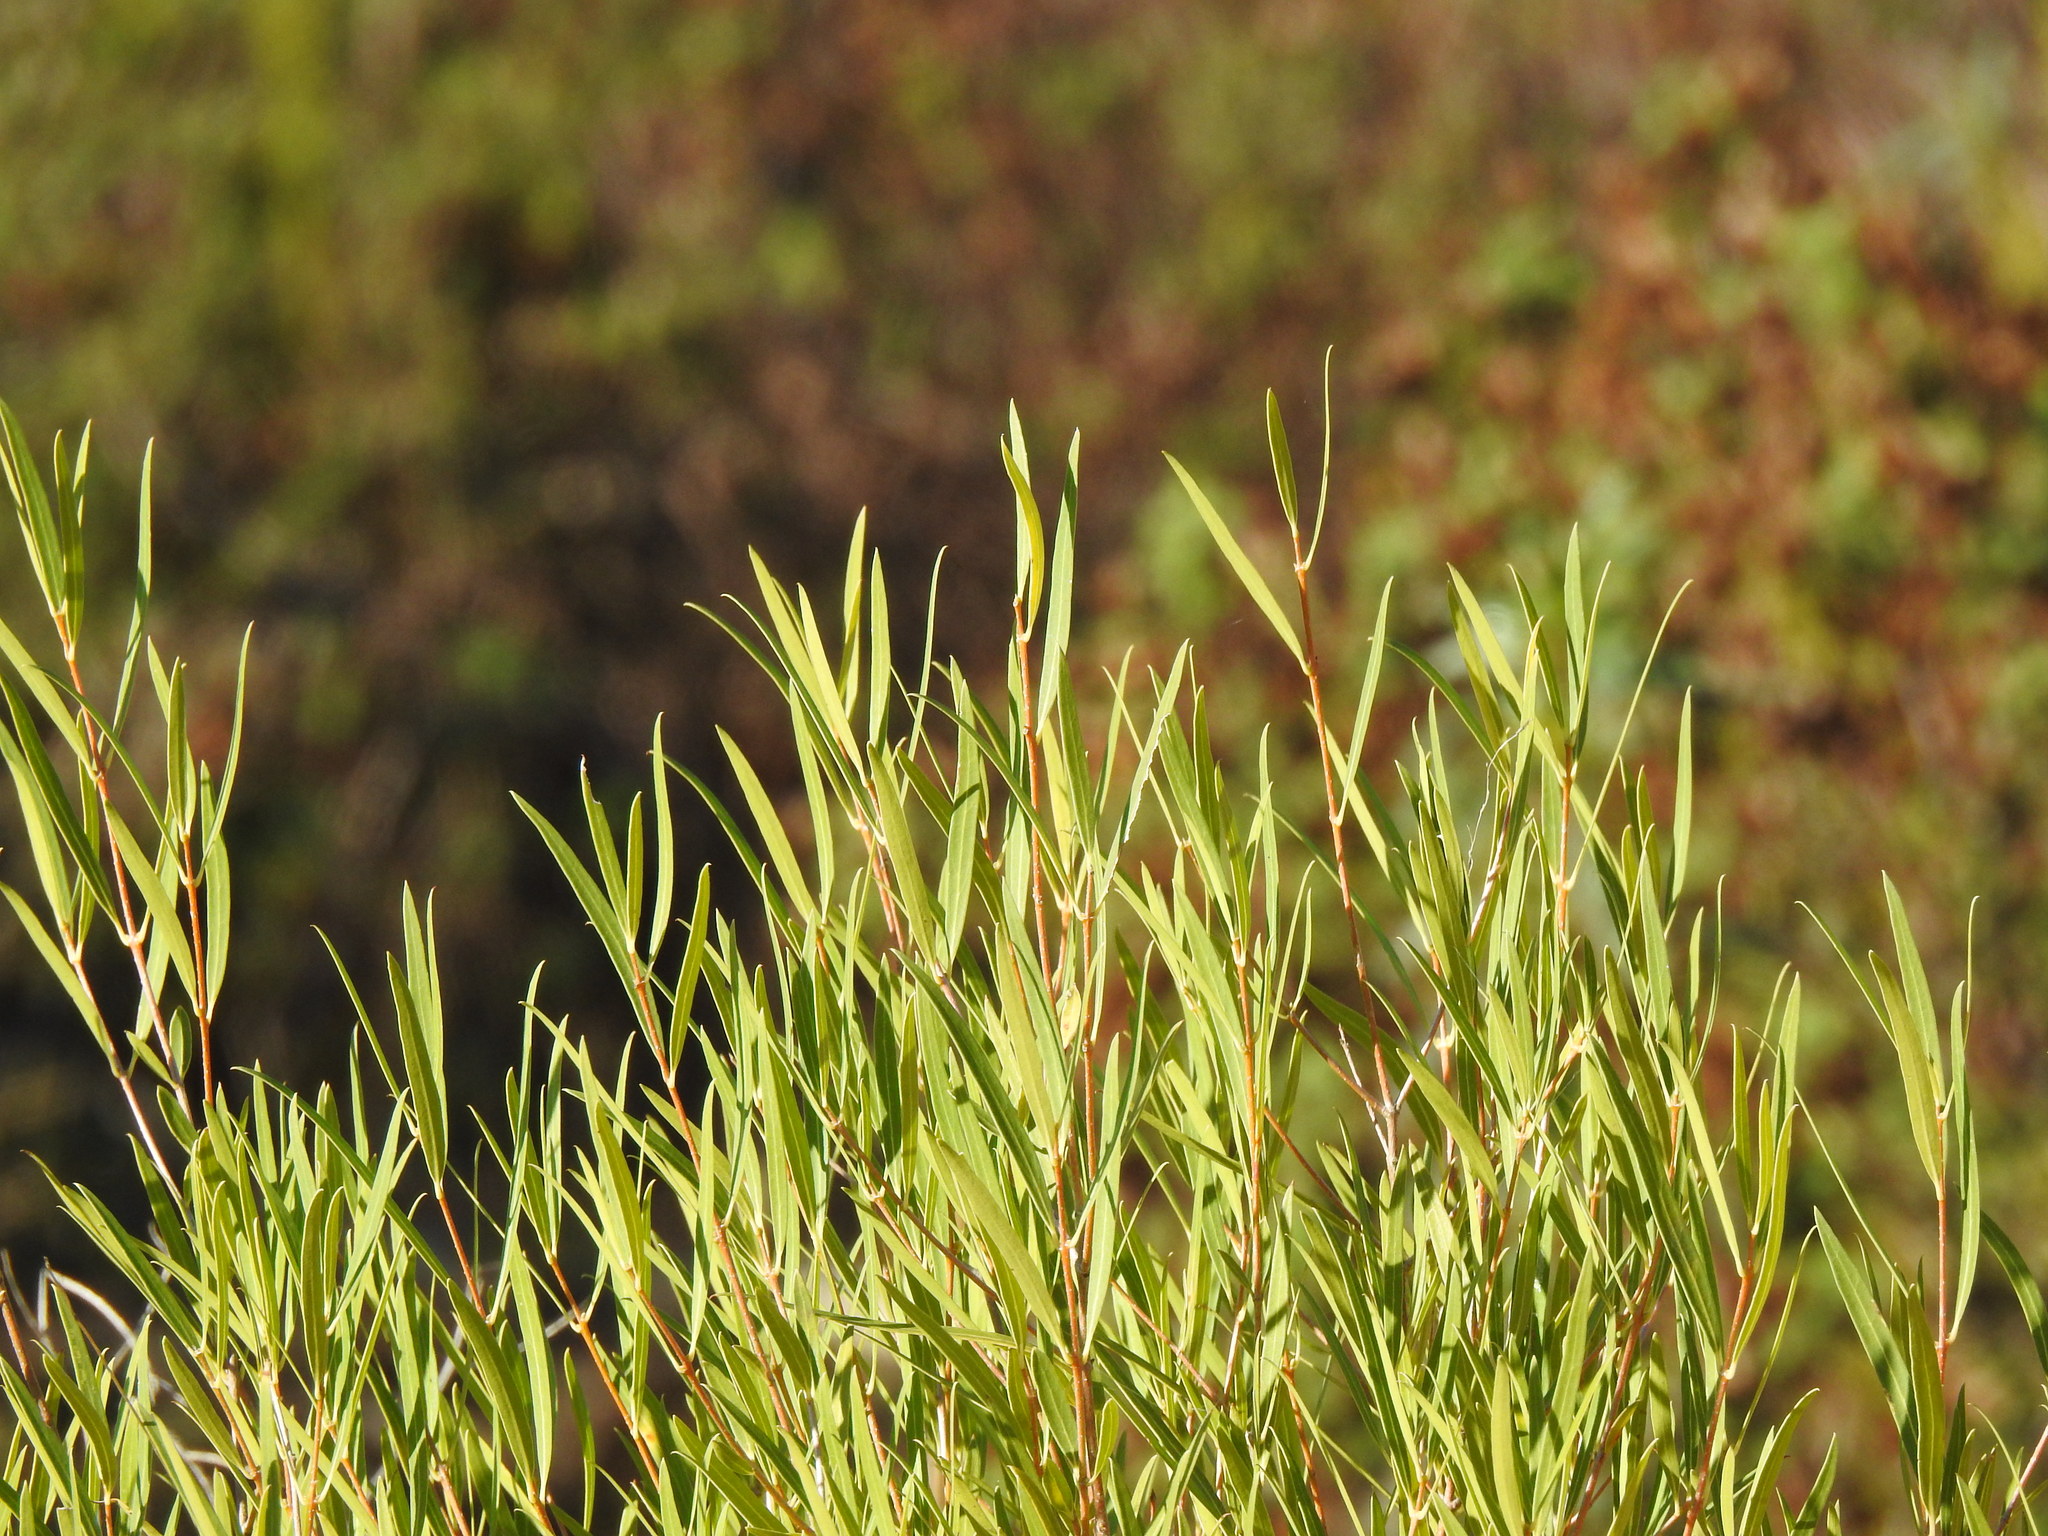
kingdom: Plantae
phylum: Tracheophyta
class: Magnoliopsida
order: Lamiales
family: Oleaceae
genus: Phillyrea
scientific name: Phillyrea angustifolia
